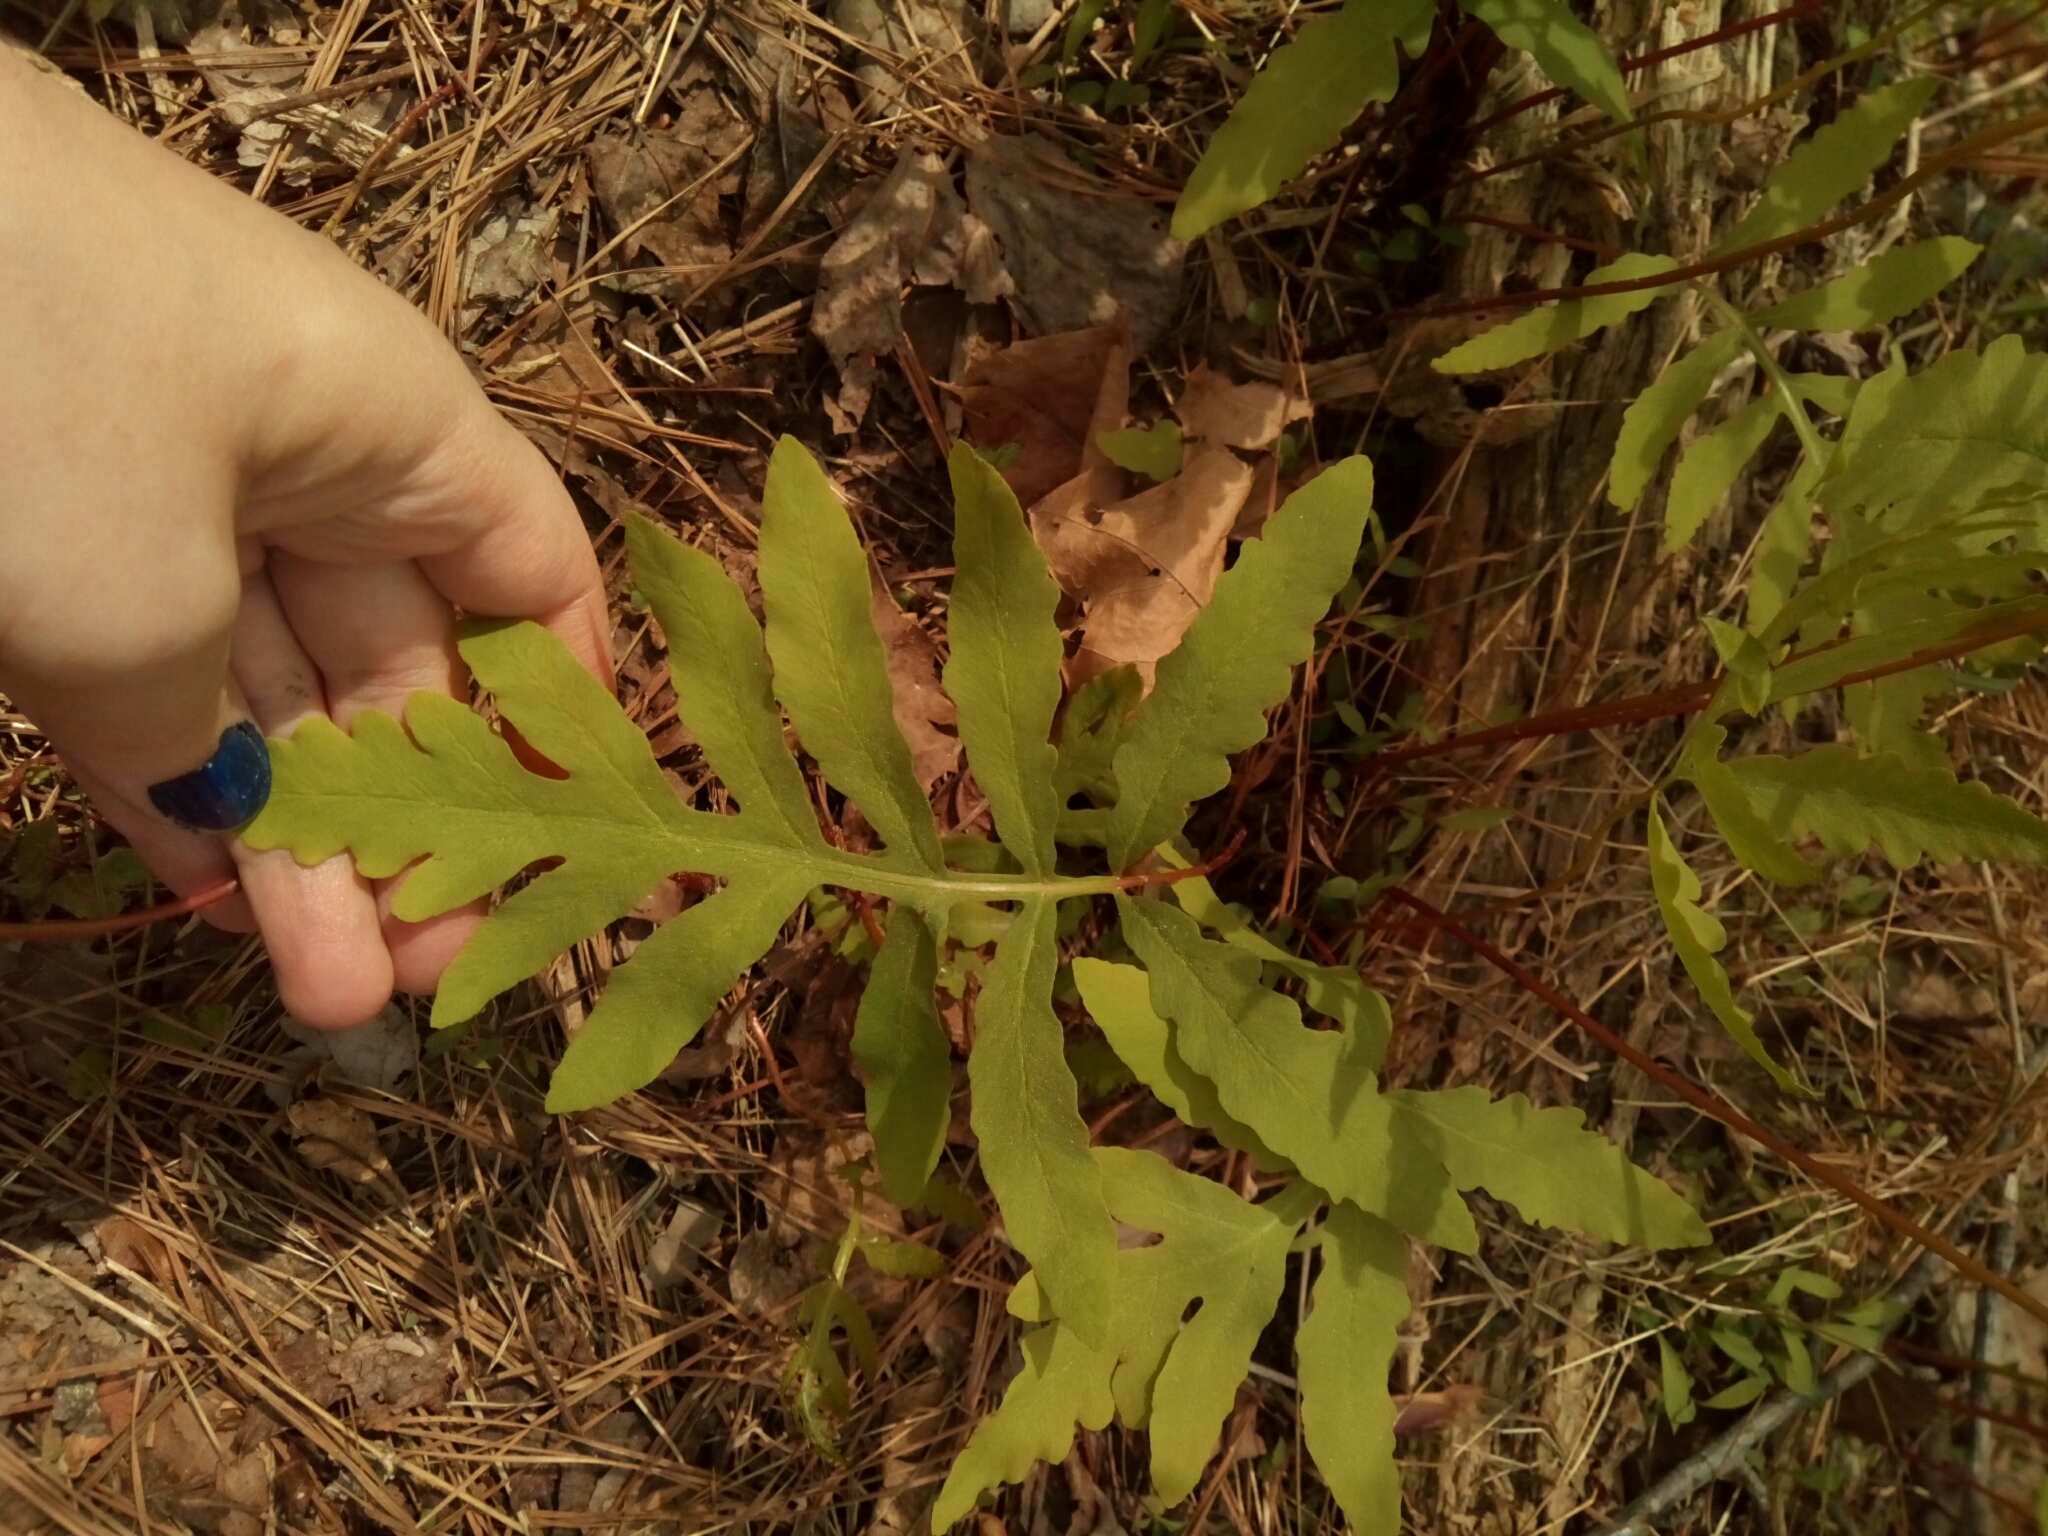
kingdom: Plantae
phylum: Tracheophyta
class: Polypodiopsida
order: Polypodiales
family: Onocleaceae
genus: Onoclea
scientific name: Onoclea sensibilis
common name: Sensitive fern
